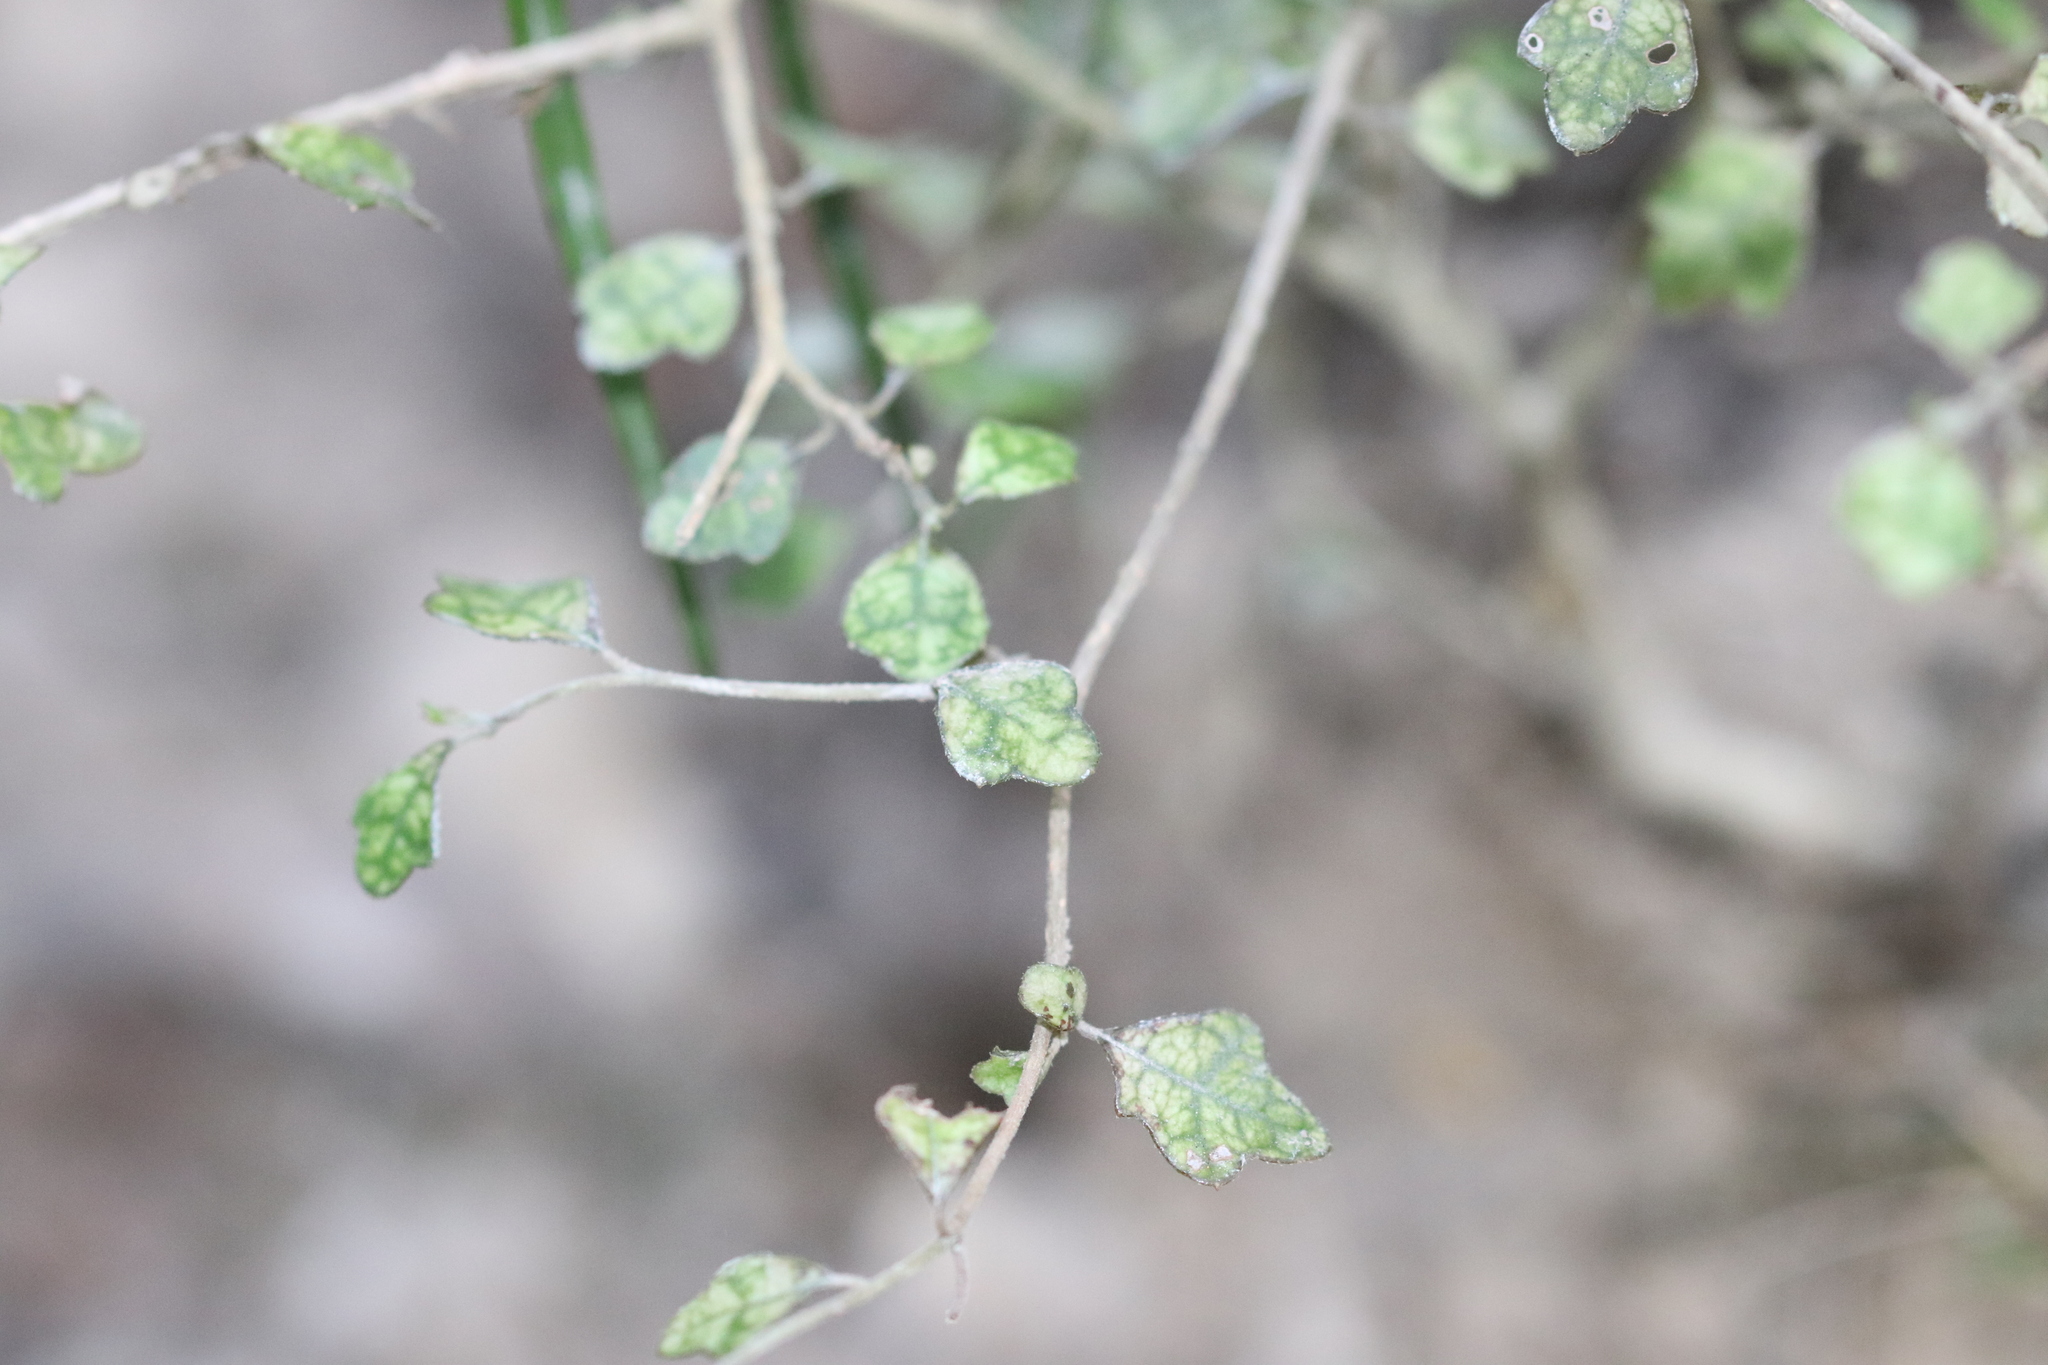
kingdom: Plantae
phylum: Tracheophyta
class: Magnoliopsida
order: Apiales
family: Pennantiaceae
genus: Pennantia
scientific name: Pennantia corymbosa
